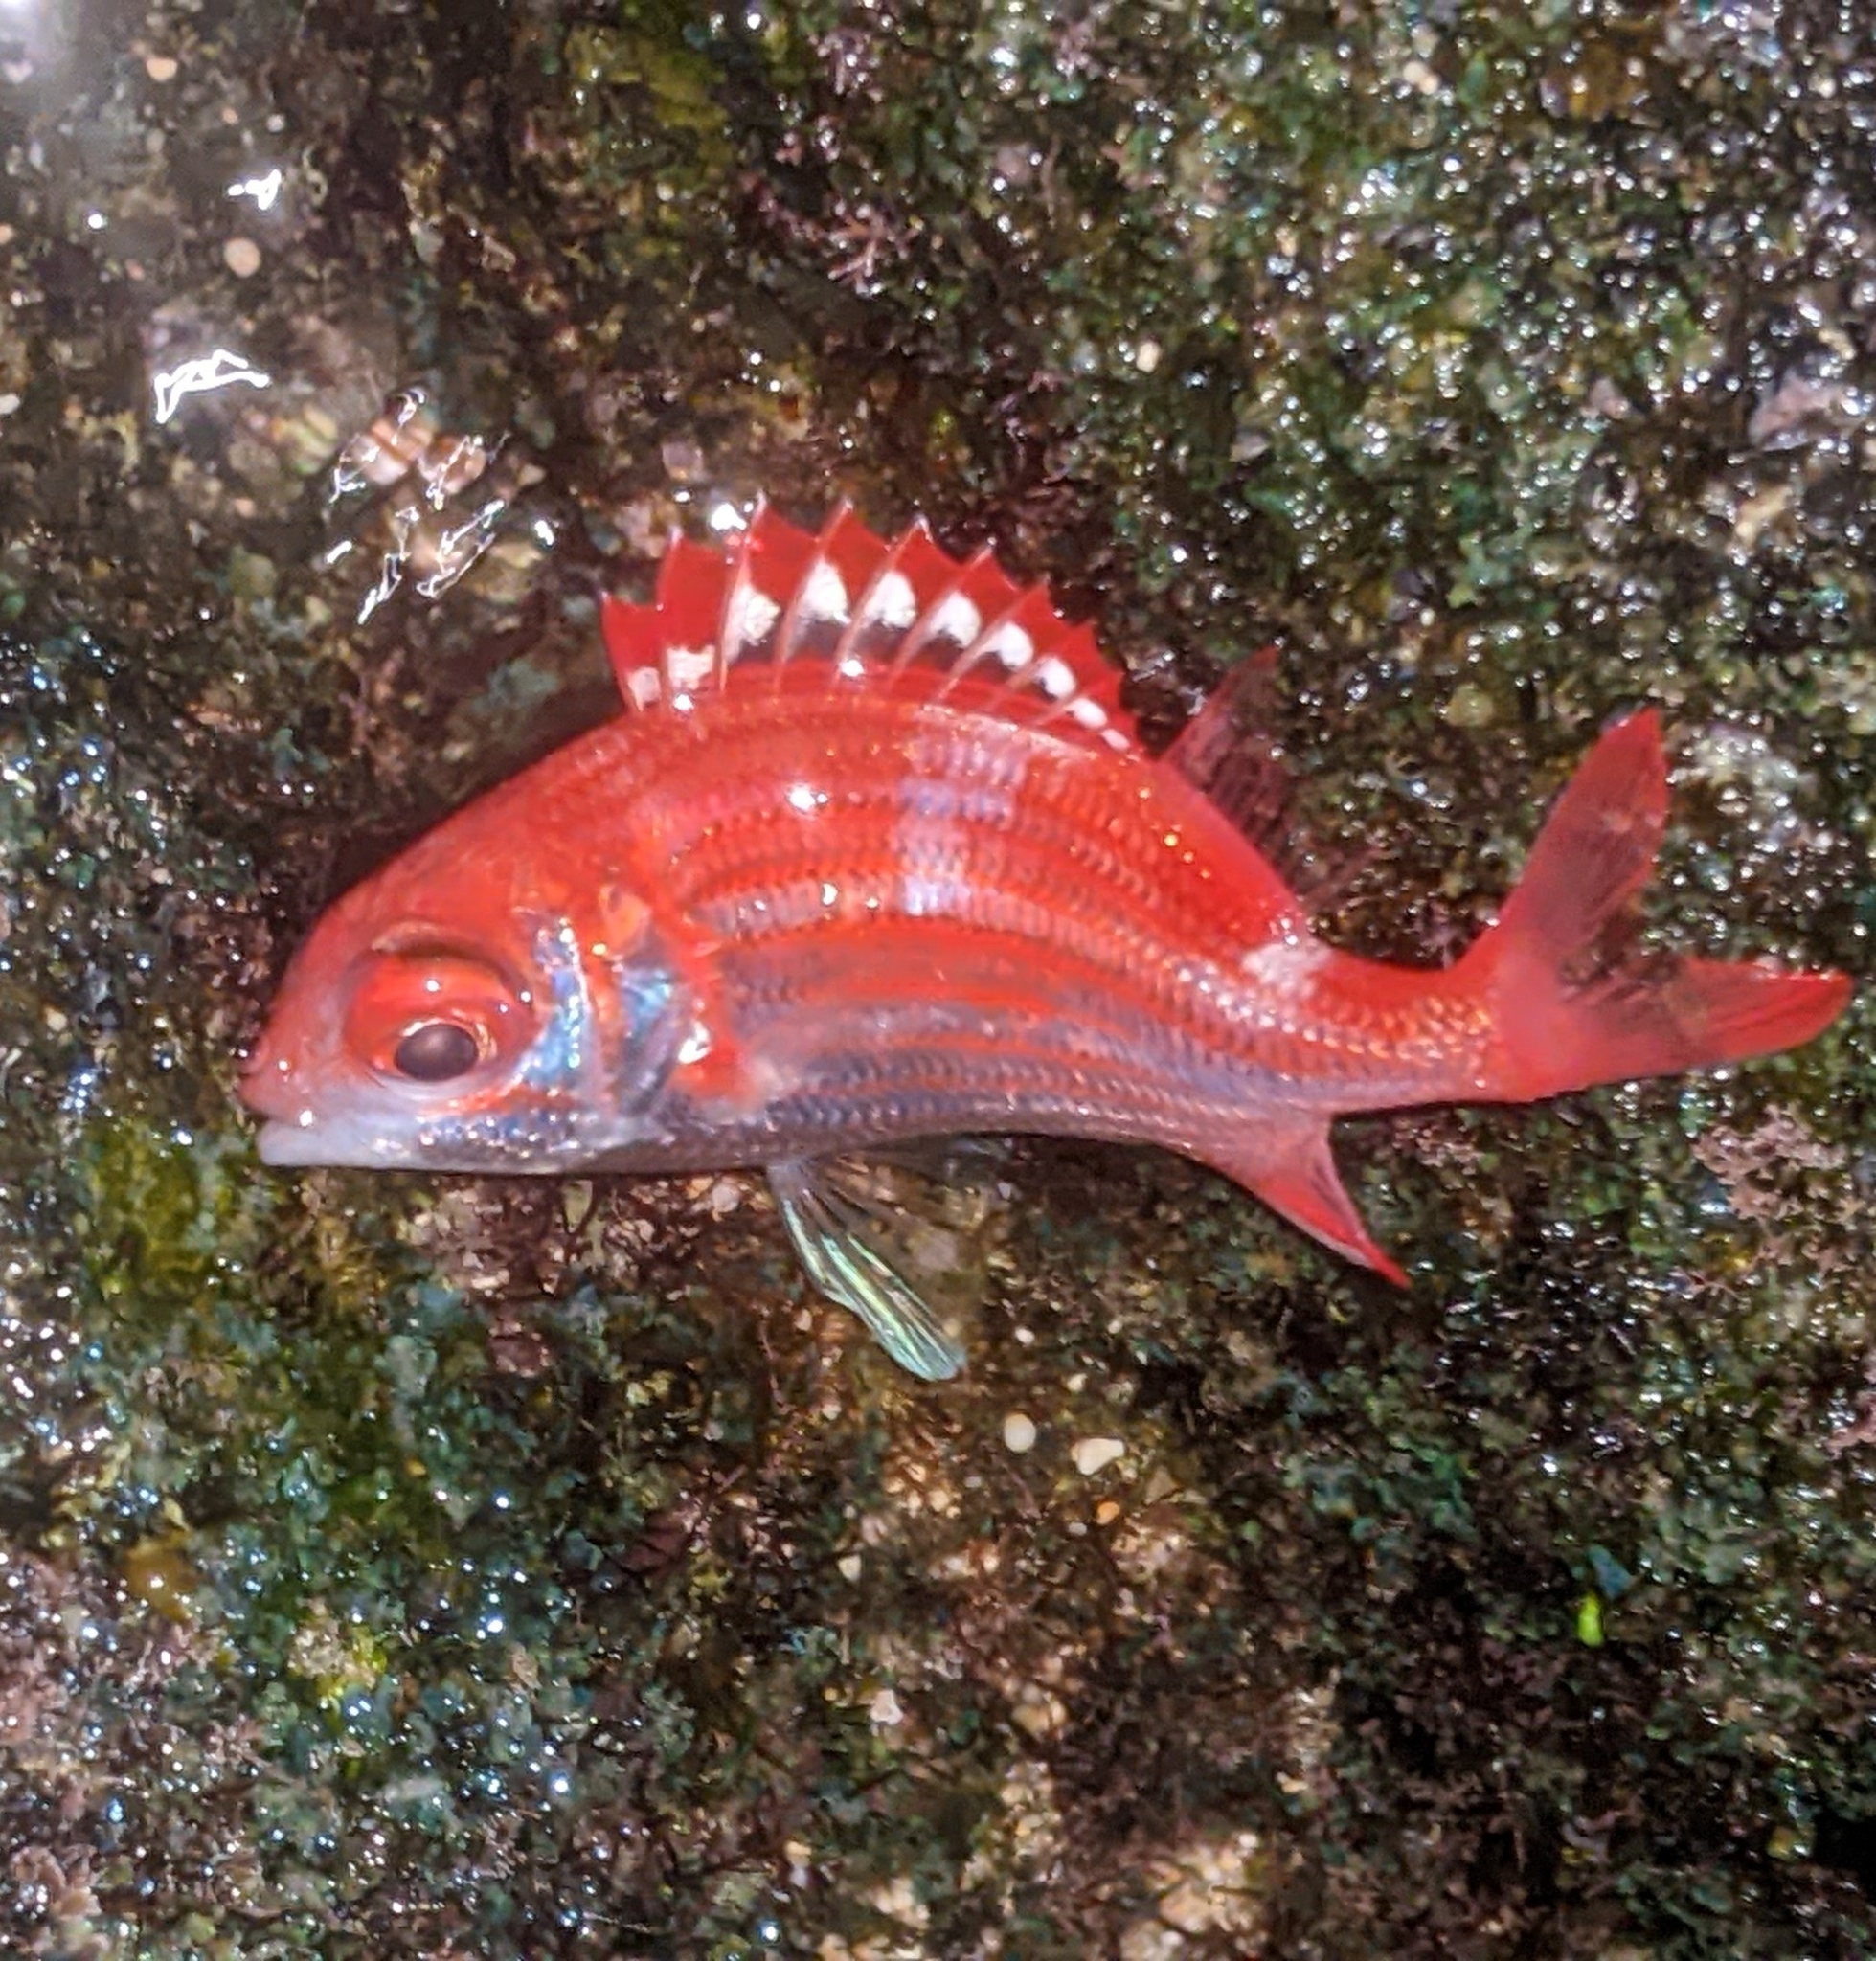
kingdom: Animalia
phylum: Chordata
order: Beryciformes
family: Holocentridae
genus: Sargocentron
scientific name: Sargocentron punctatissimum
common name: Peppered squirrelfish
